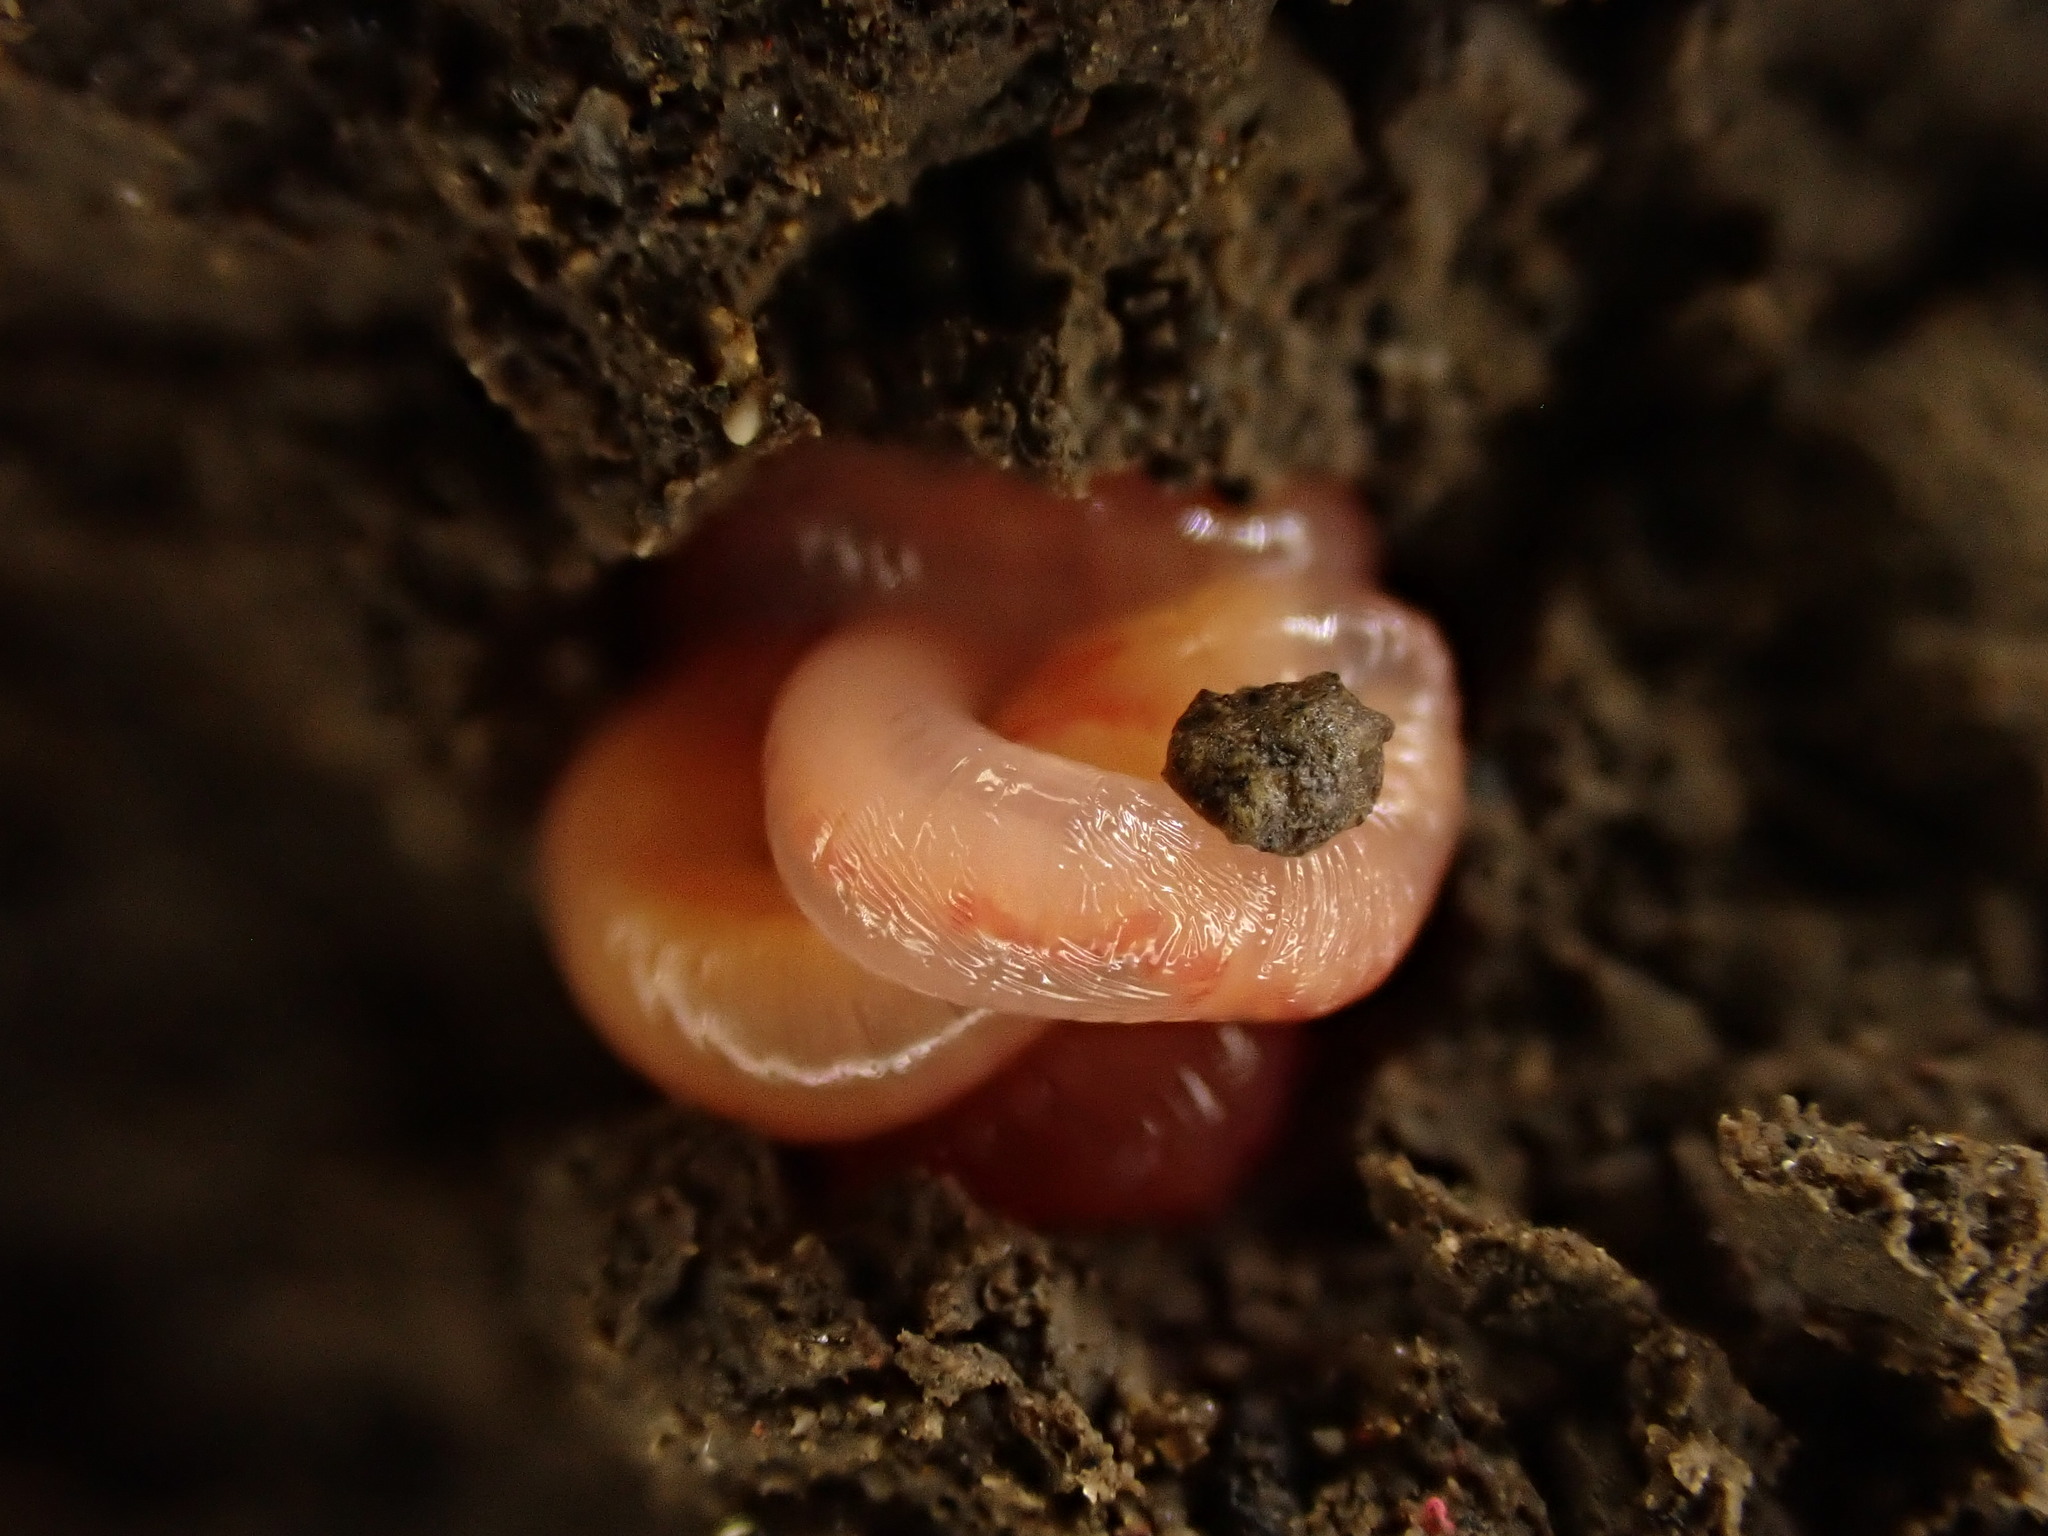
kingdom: Animalia
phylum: Annelida
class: Clitellata
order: Crassiclitellata
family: Lumbricidae
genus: Lumbricus
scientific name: Lumbricus terrestris
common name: Common earthworm
